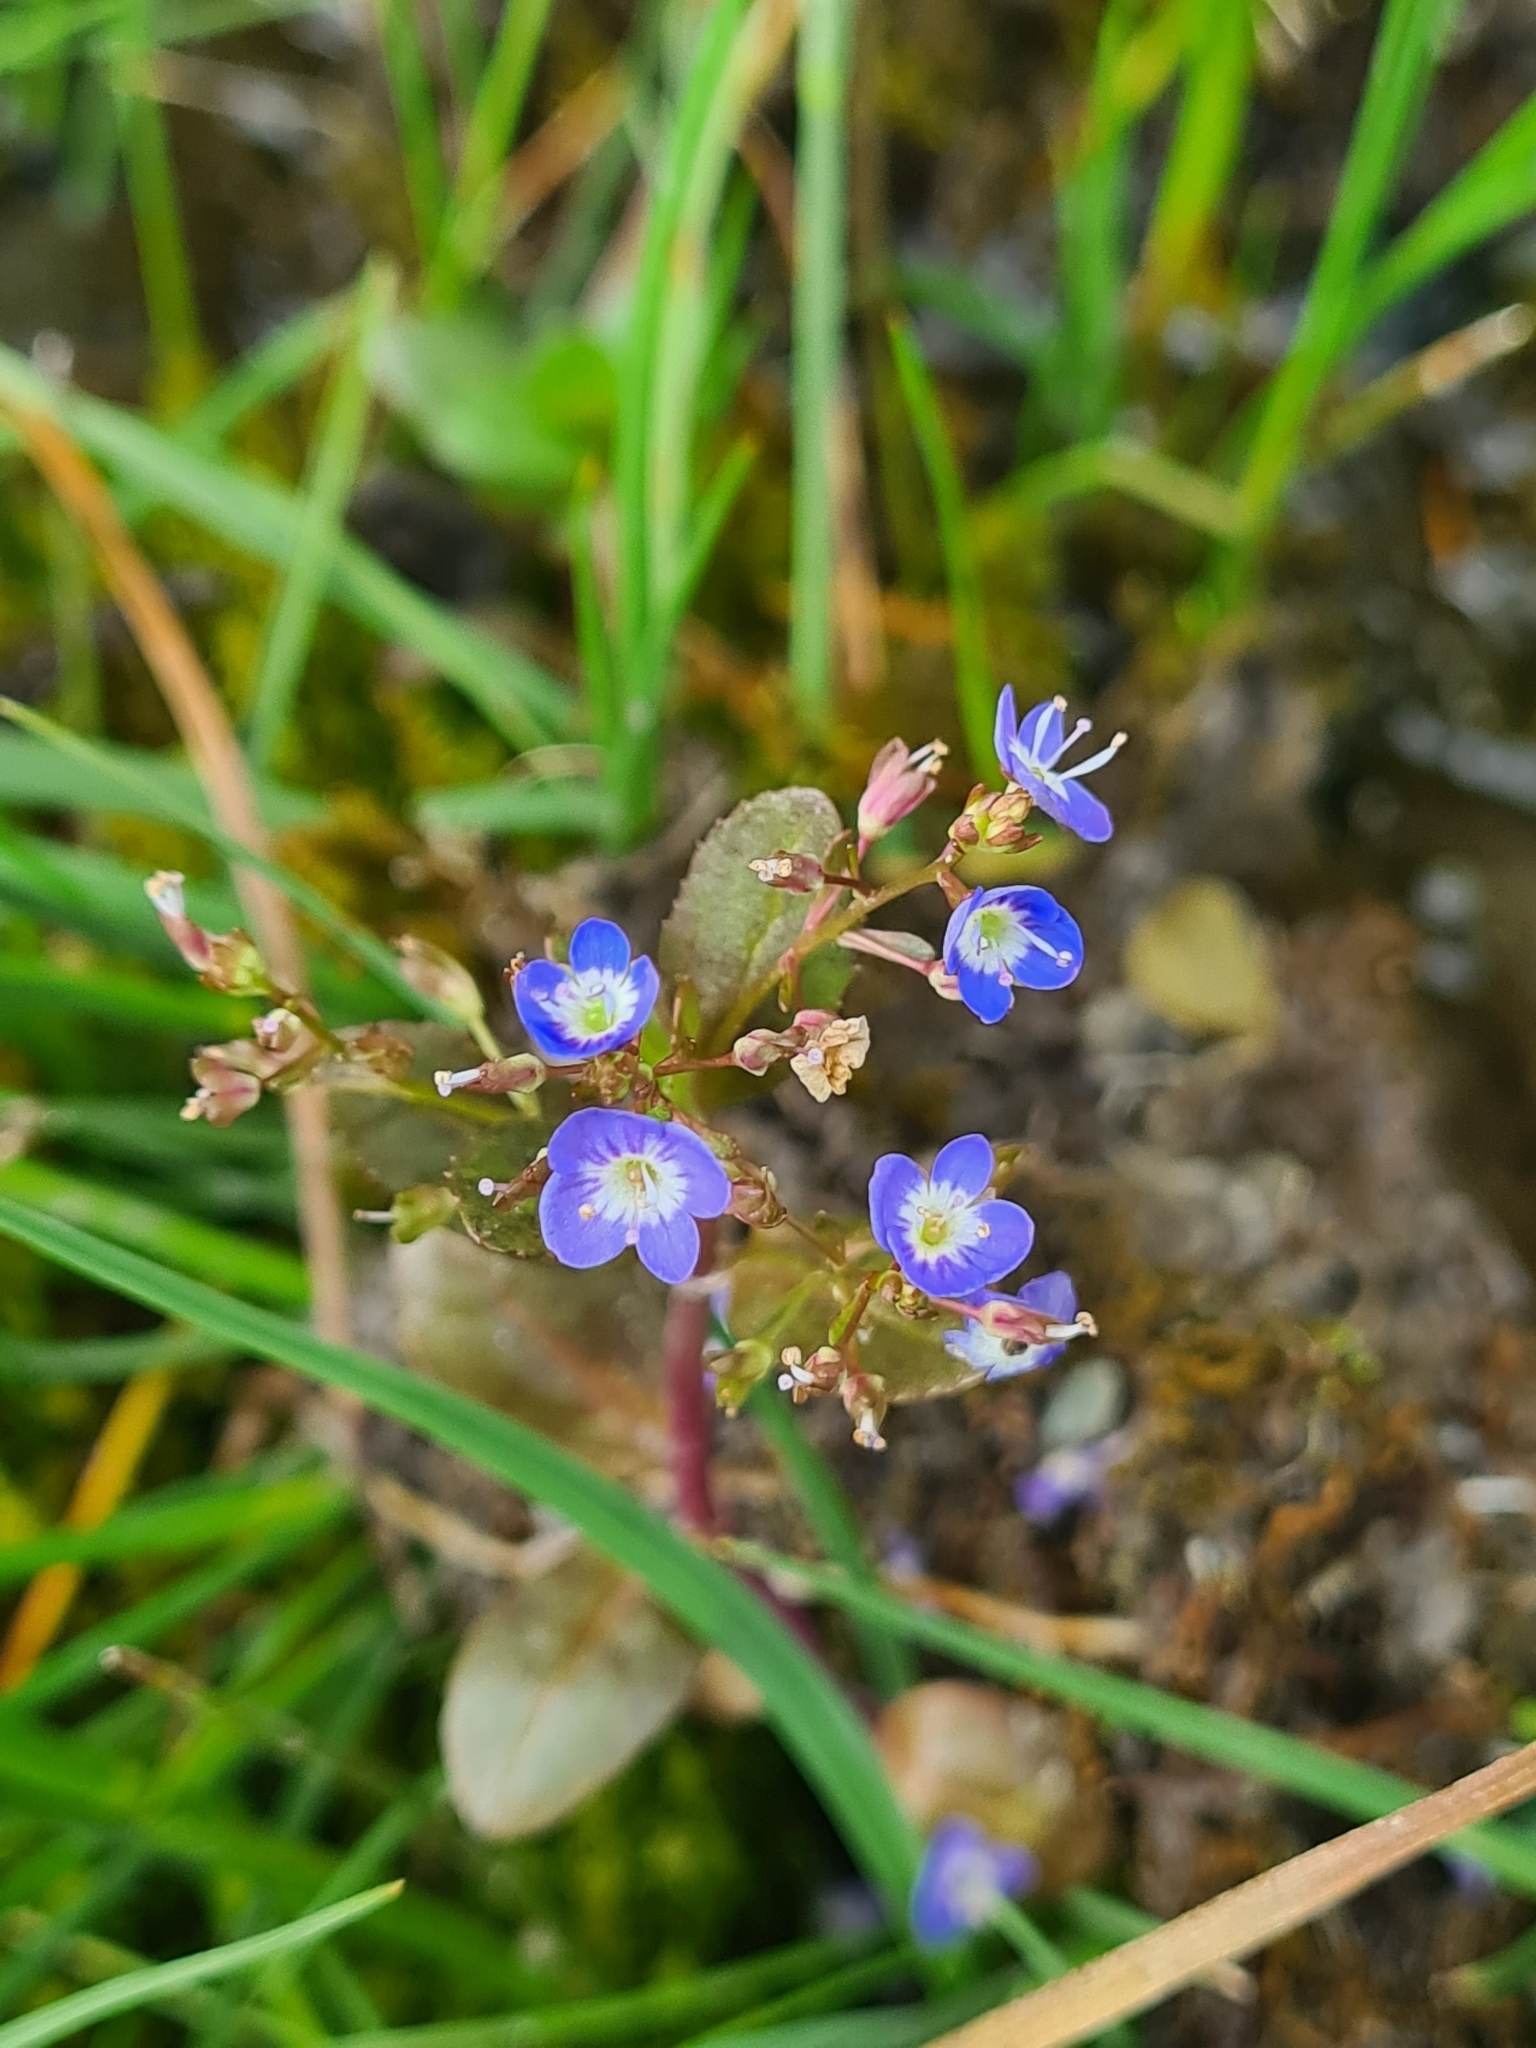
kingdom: Plantae
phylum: Tracheophyta
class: Magnoliopsida
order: Lamiales
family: Plantaginaceae
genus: Veronica
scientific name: Veronica beccabunga
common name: Brooklime
